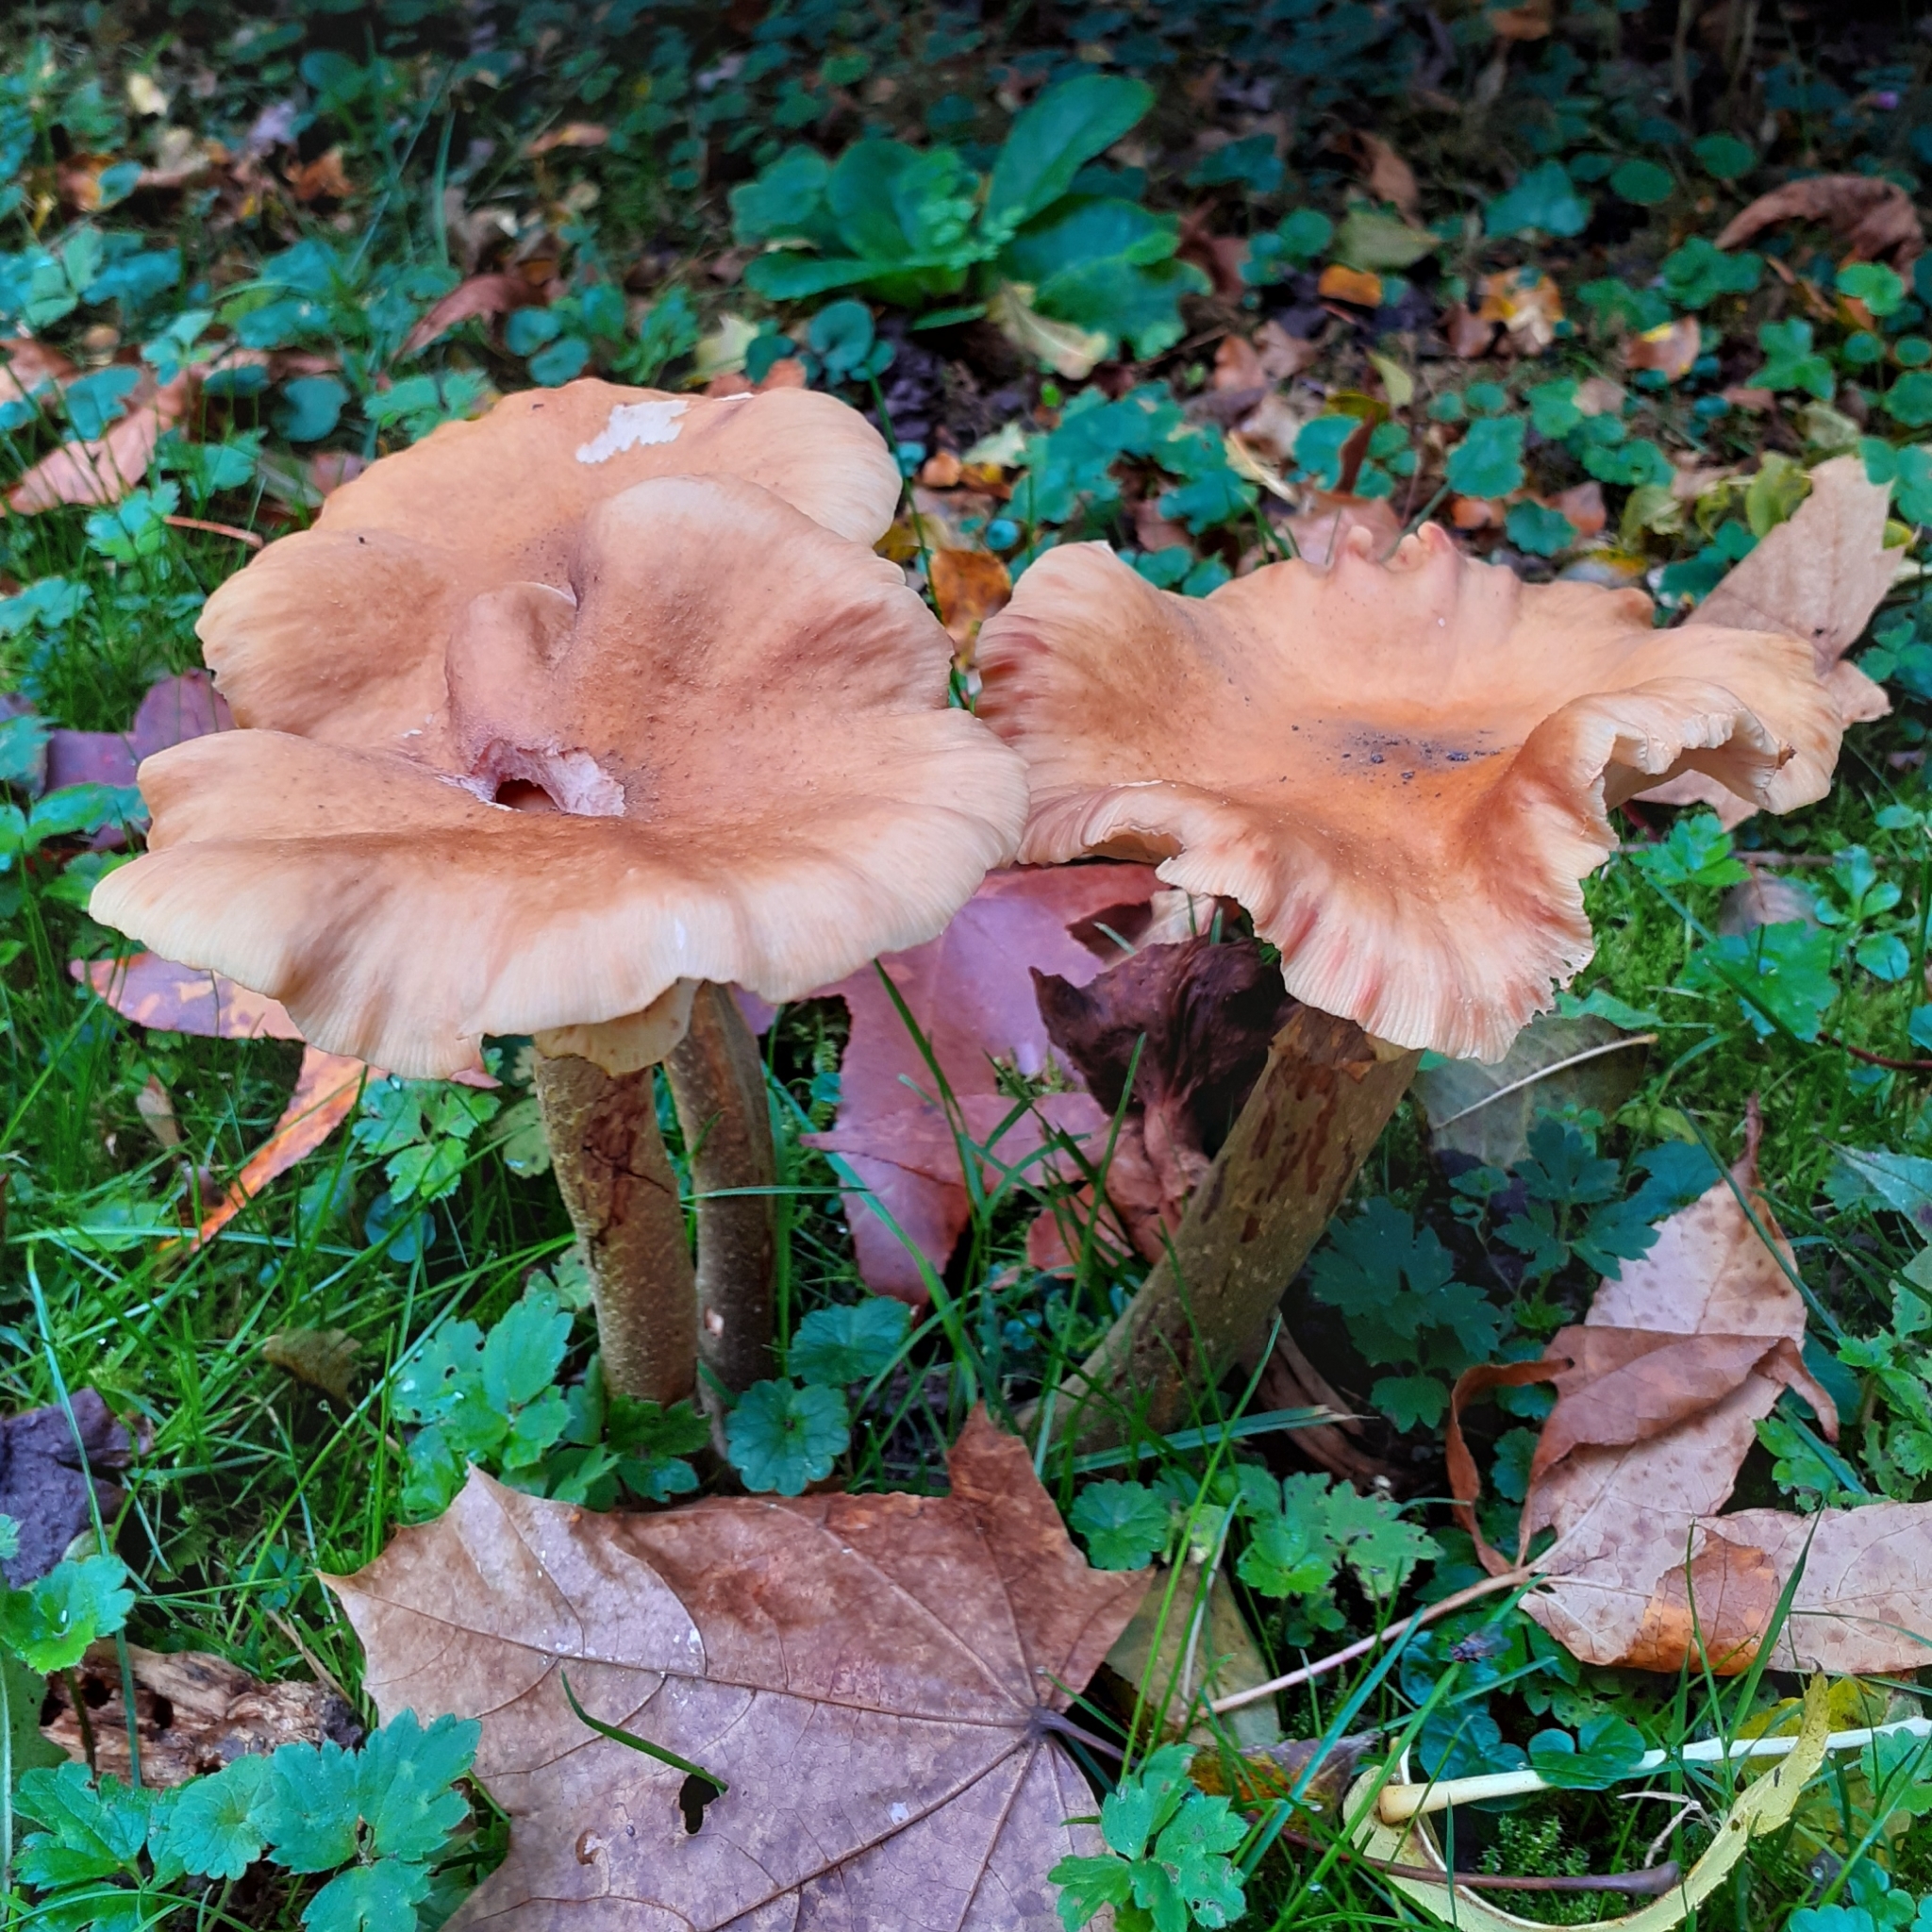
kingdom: Fungi
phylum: Basidiomycota
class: Agaricomycetes
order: Agaricales
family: Physalacriaceae
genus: Armillaria
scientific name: Armillaria mellea
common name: Honey fungus
